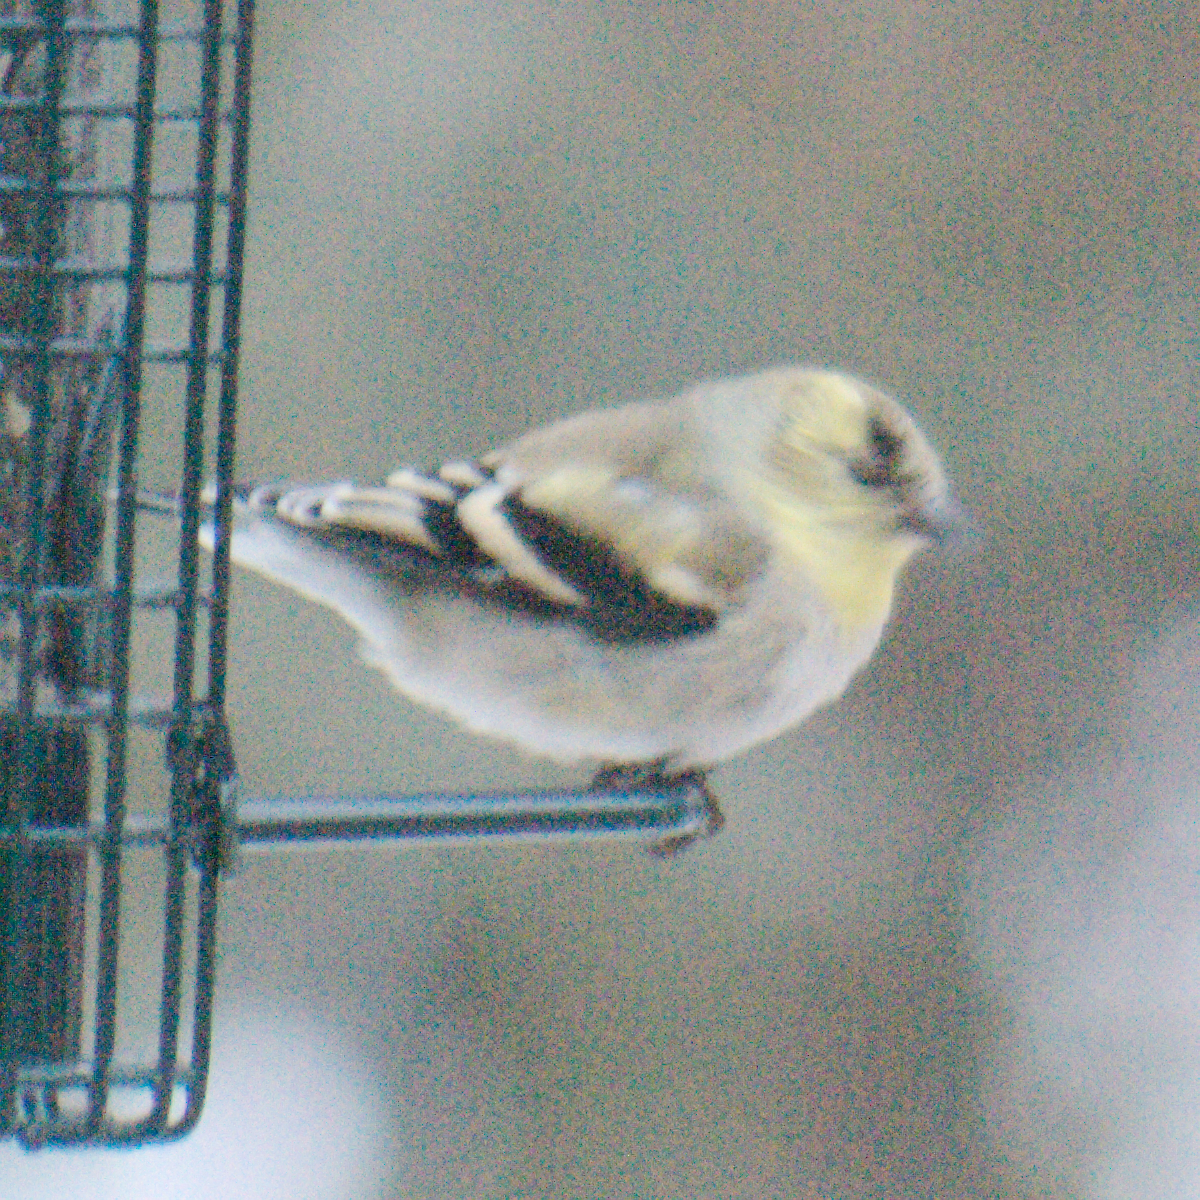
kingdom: Animalia
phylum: Chordata
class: Aves
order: Passeriformes
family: Fringillidae
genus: Spinus
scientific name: Spinus tristis
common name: American goldfinch
